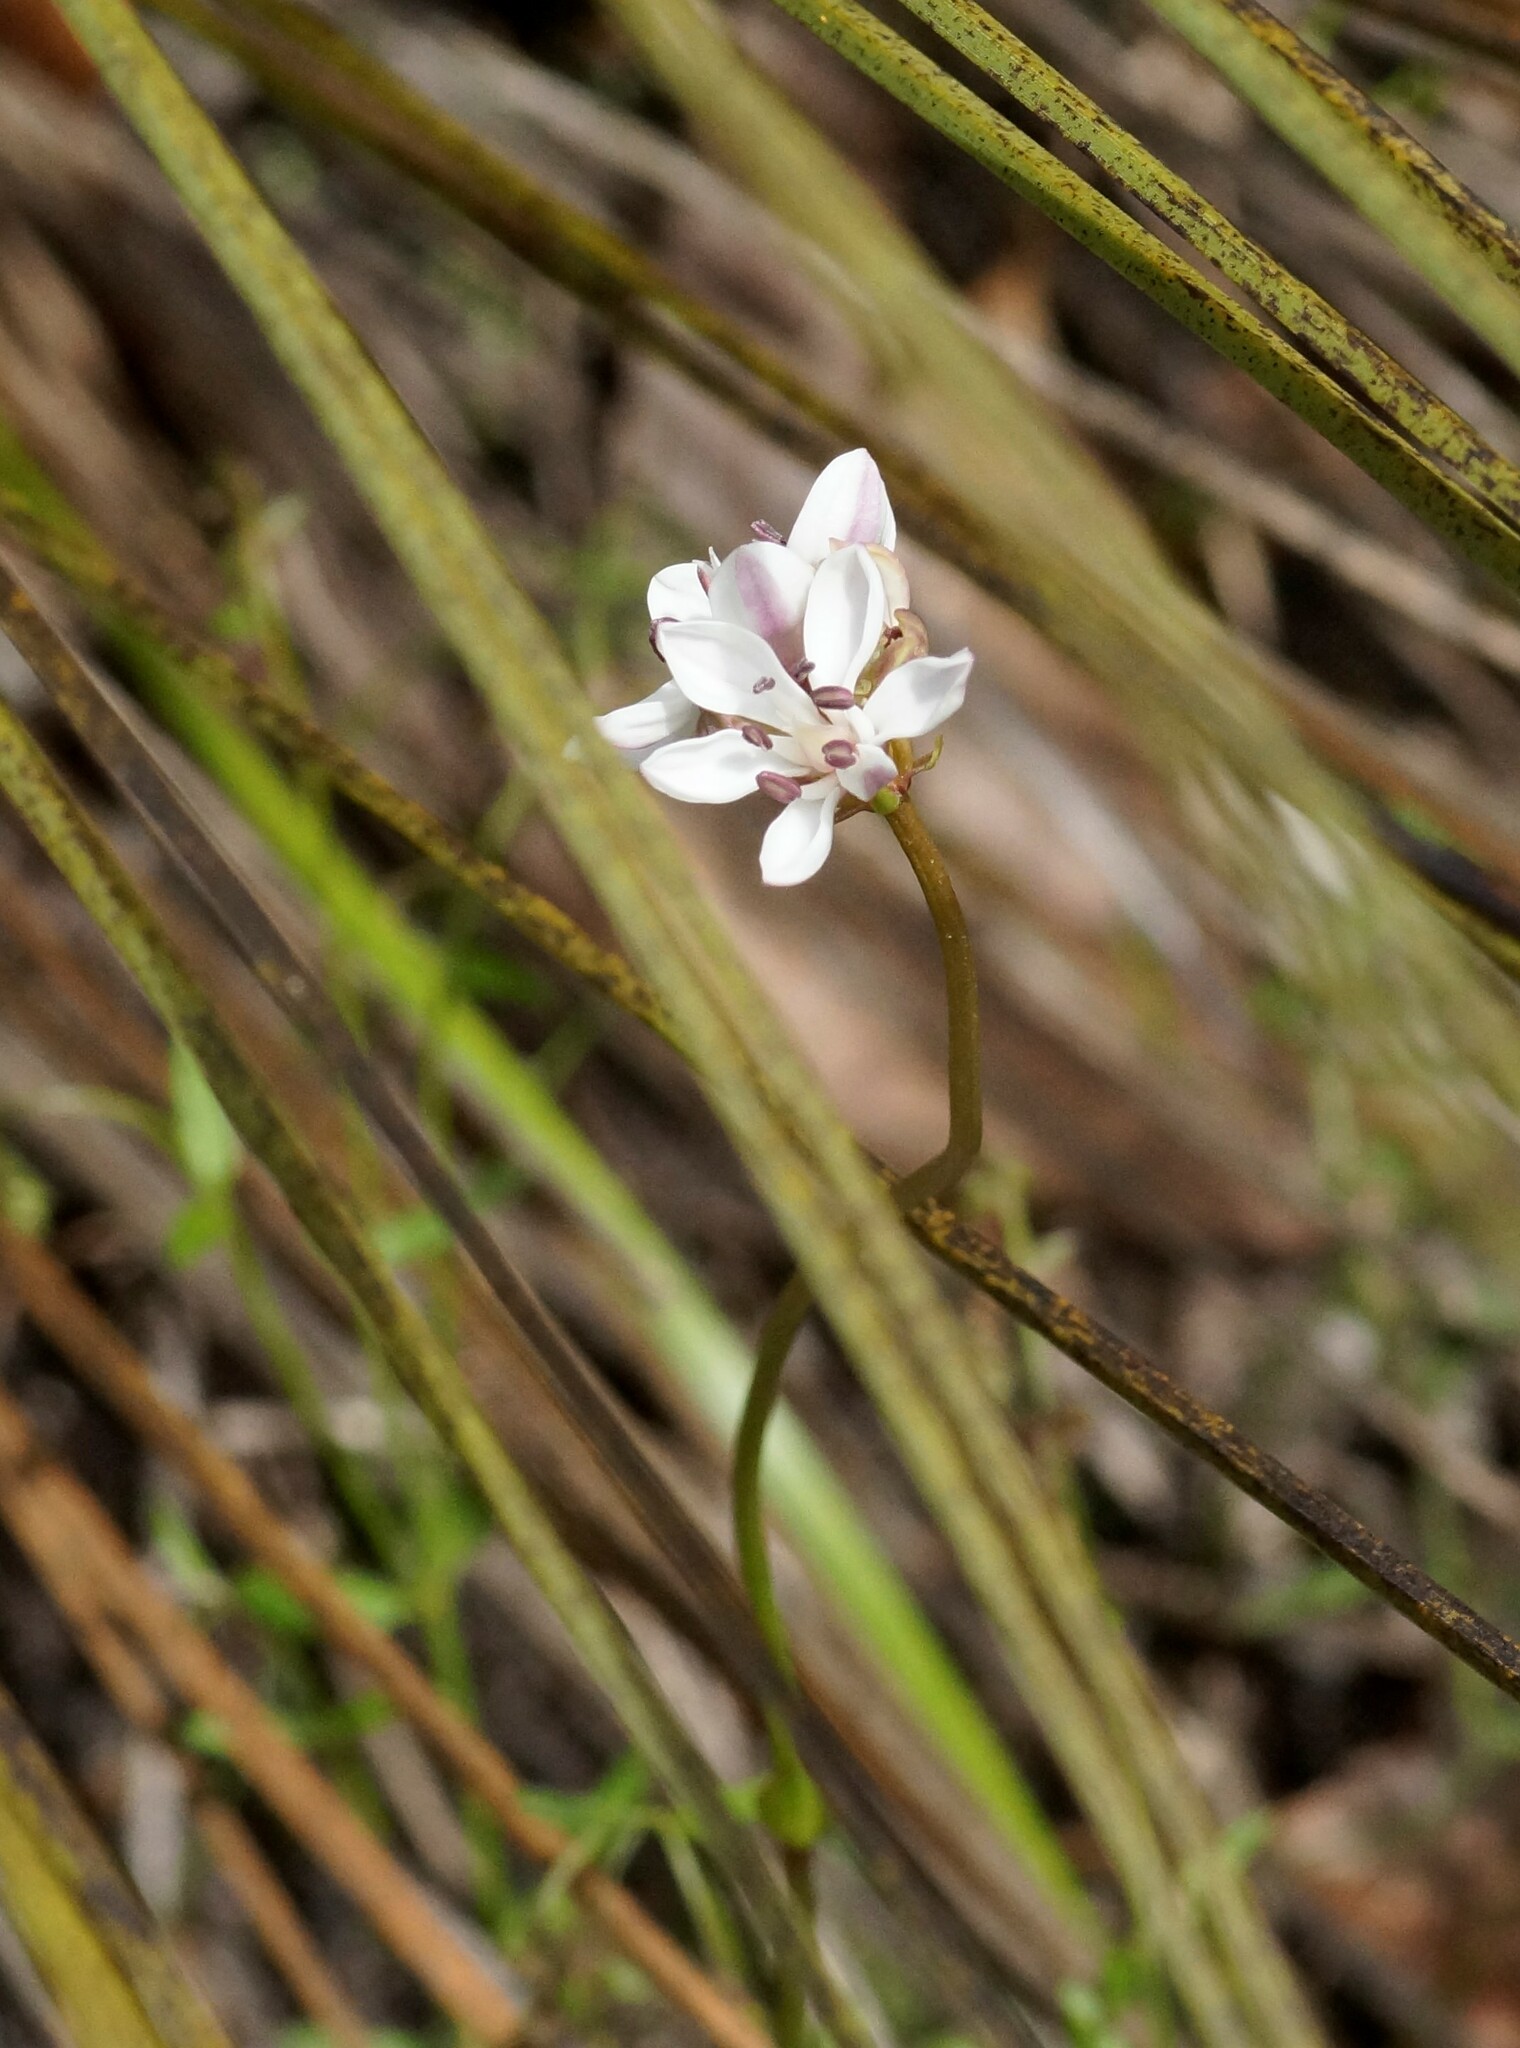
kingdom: Plantae
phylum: Tracheophyta
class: Liliopsida
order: Liliales
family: Colchicaceae
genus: Burchardia
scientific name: Burchardia umbellata
